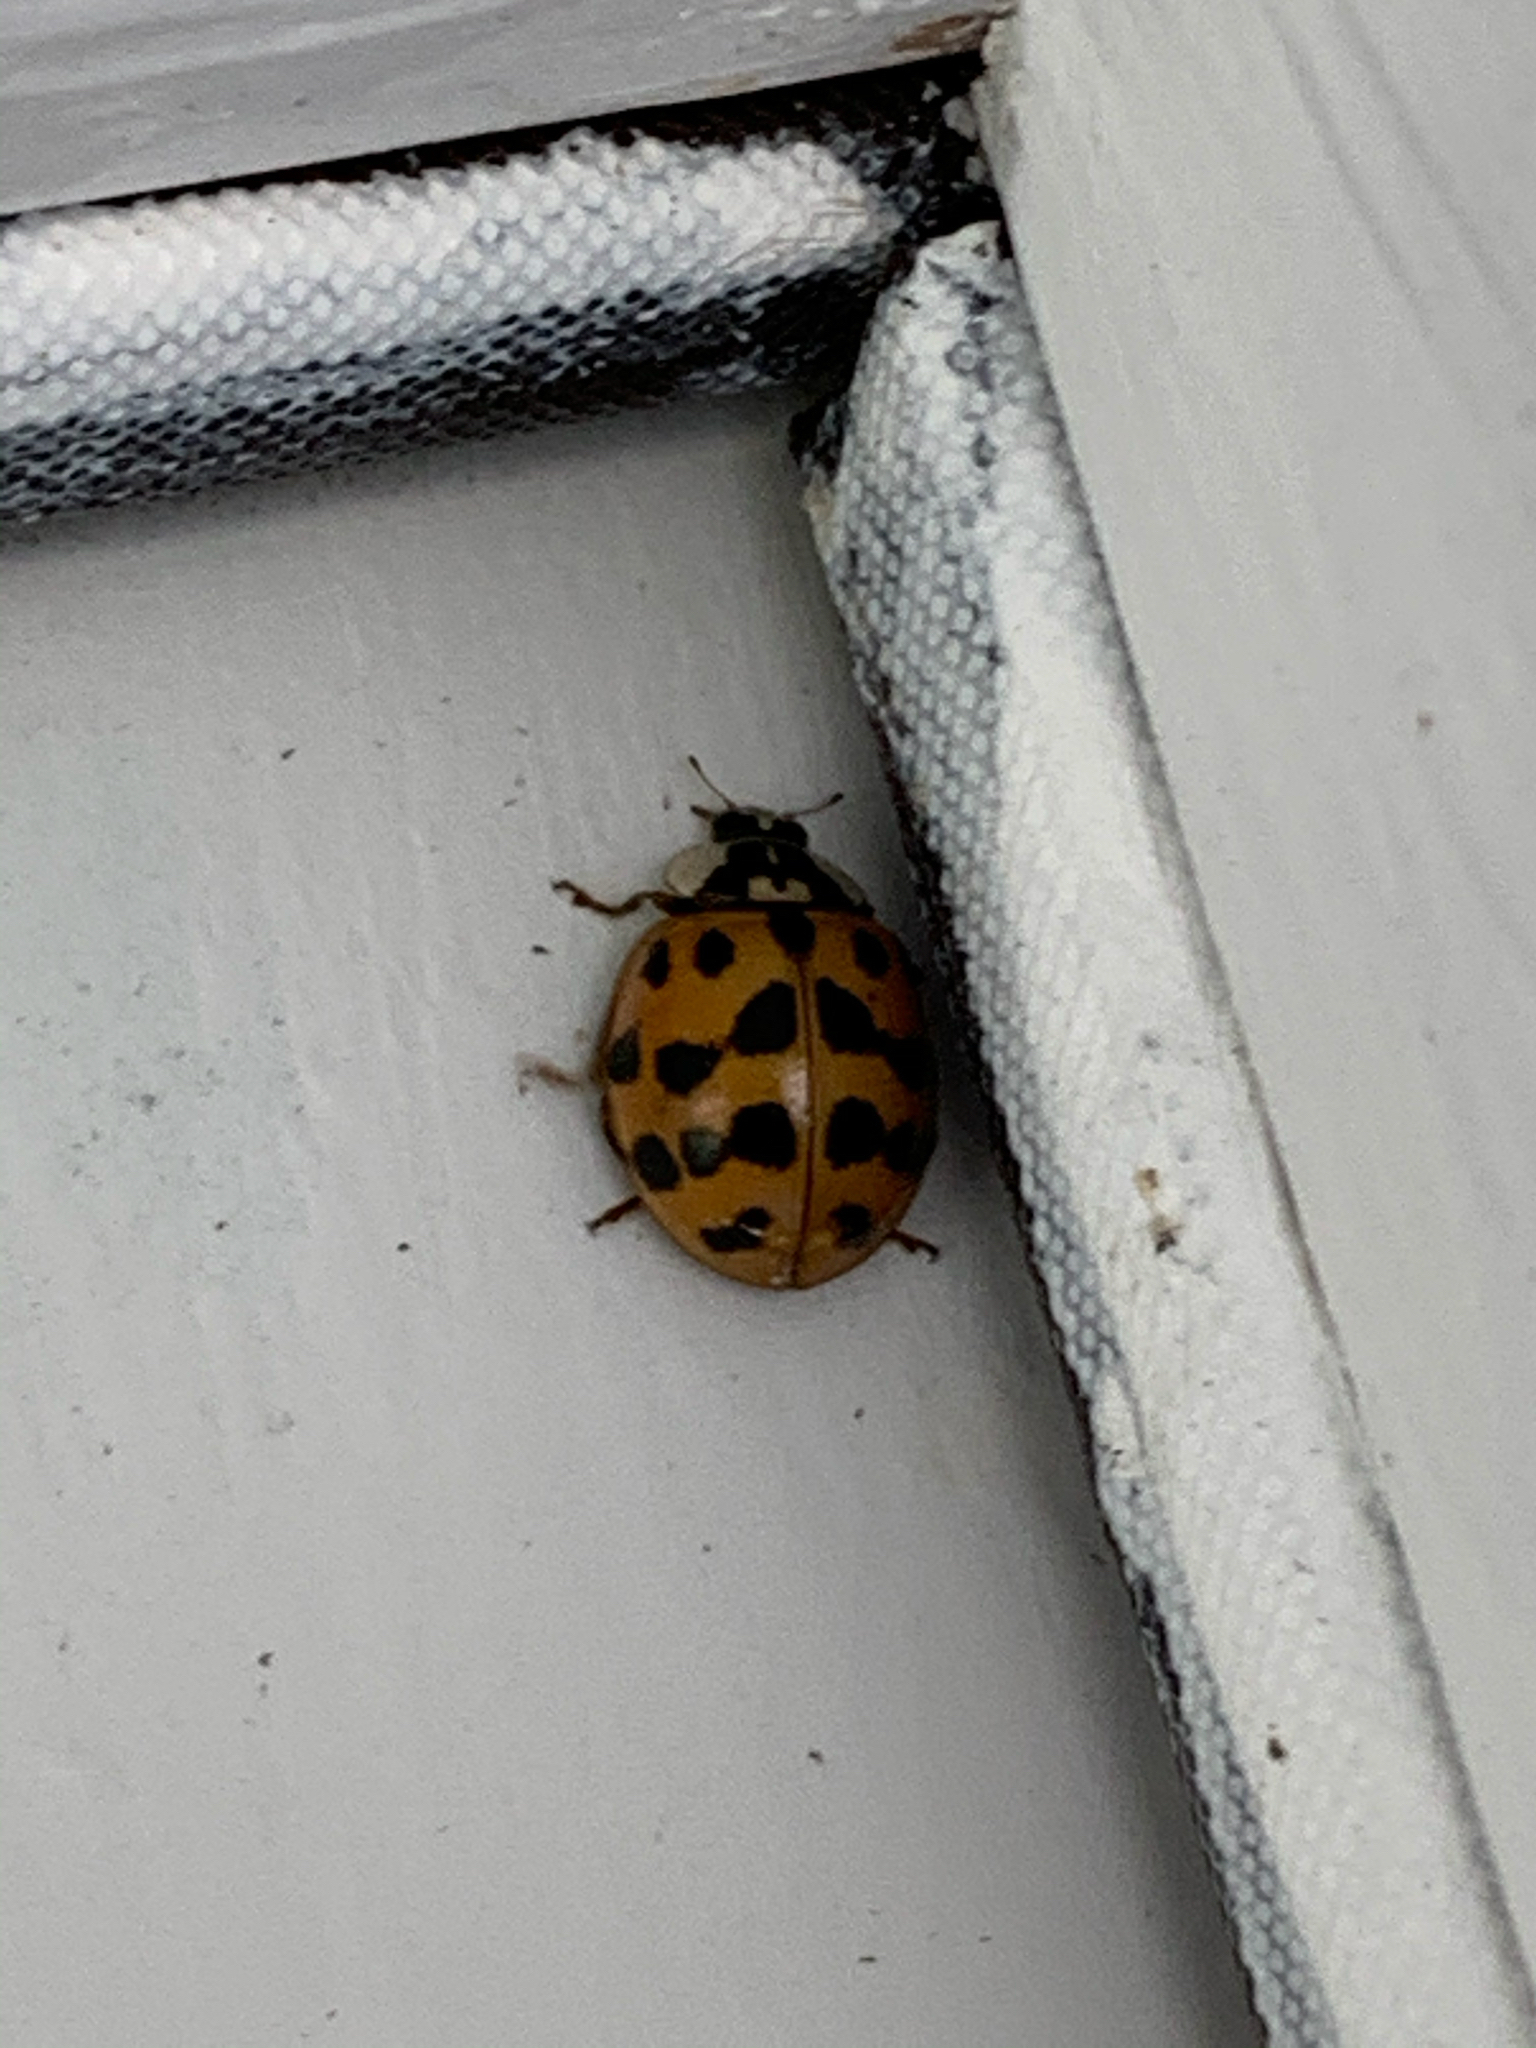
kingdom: Animalia
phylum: Arthropoda
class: Insecta
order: Coleoptera
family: Coccinellidae
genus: Harmonia
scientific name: Harmonia axyridis
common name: Harlequin ladybird
